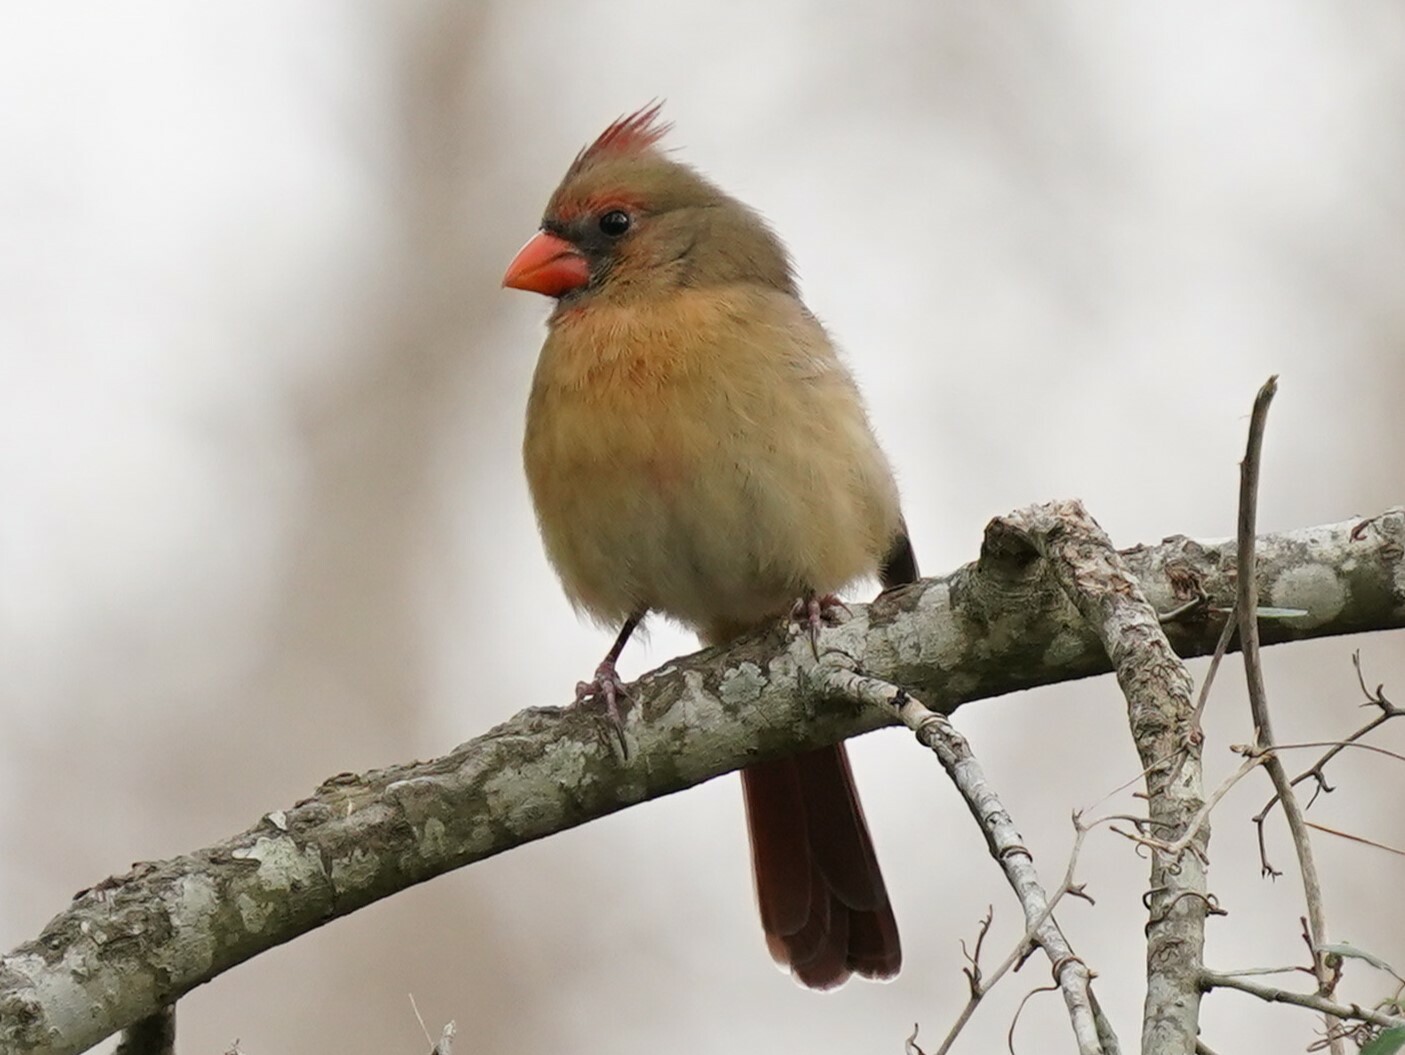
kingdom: Animalia
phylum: Chordata
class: Aves
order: Passeriformes
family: Cardinalidae
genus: Cardinalis
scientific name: Cardinalis cardinalis
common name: Northern cardinal
